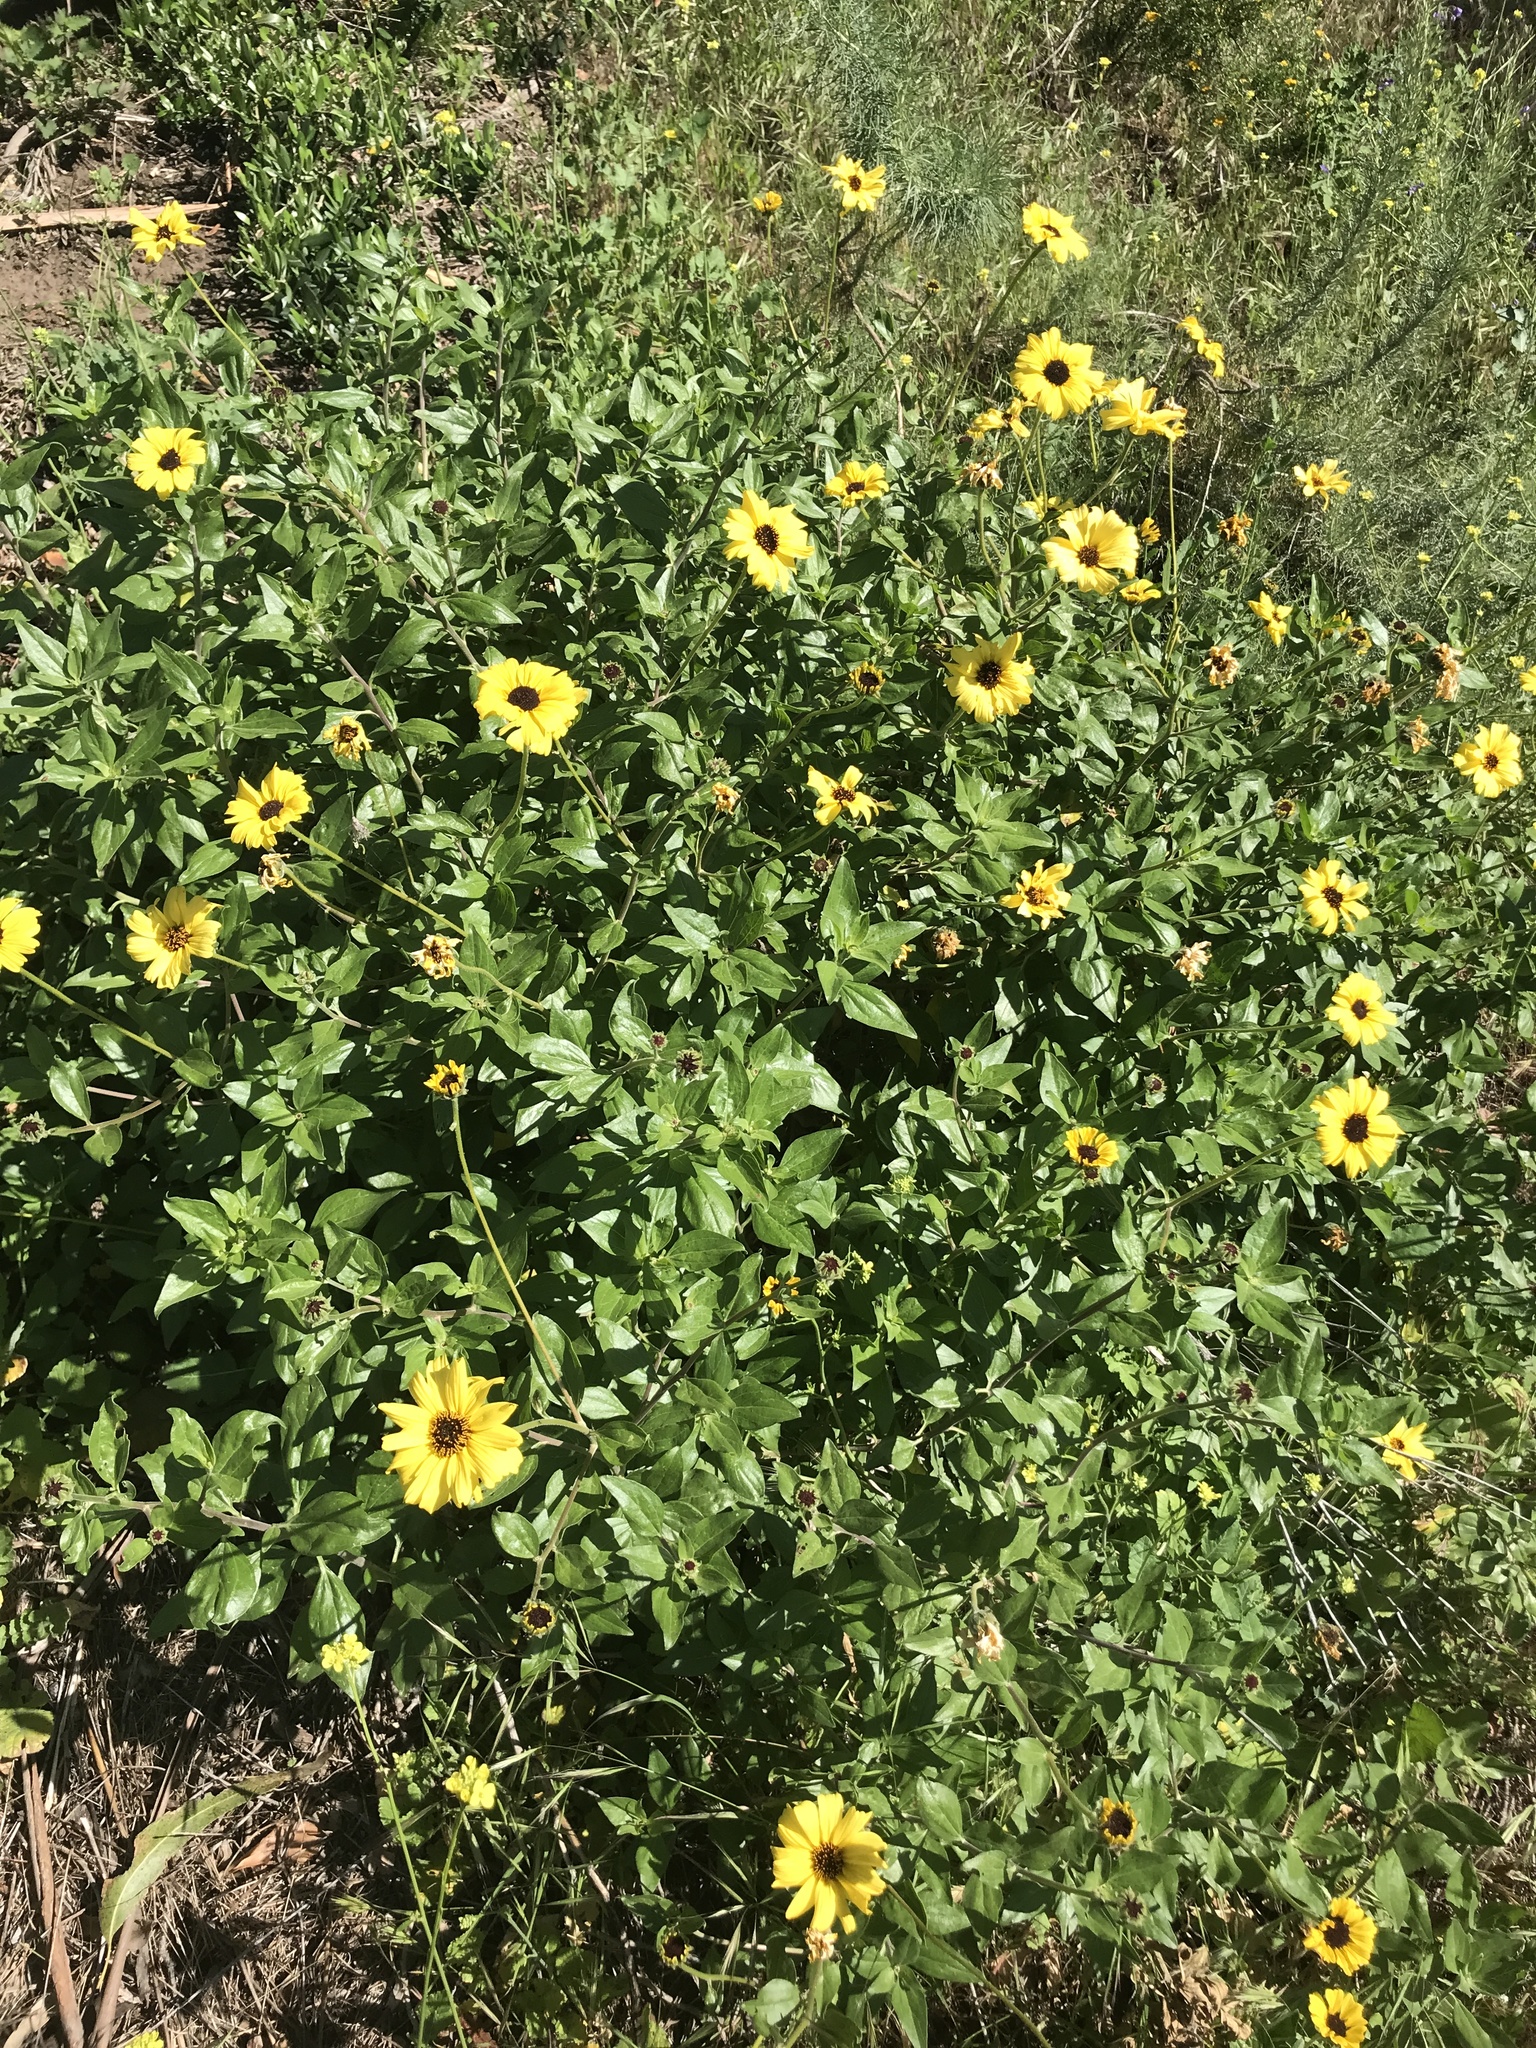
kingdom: Plantae
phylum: Tracheophyta
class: Magnoliopsida
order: Asterales
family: Asteraceae
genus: Encelia
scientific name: Encelia californica
